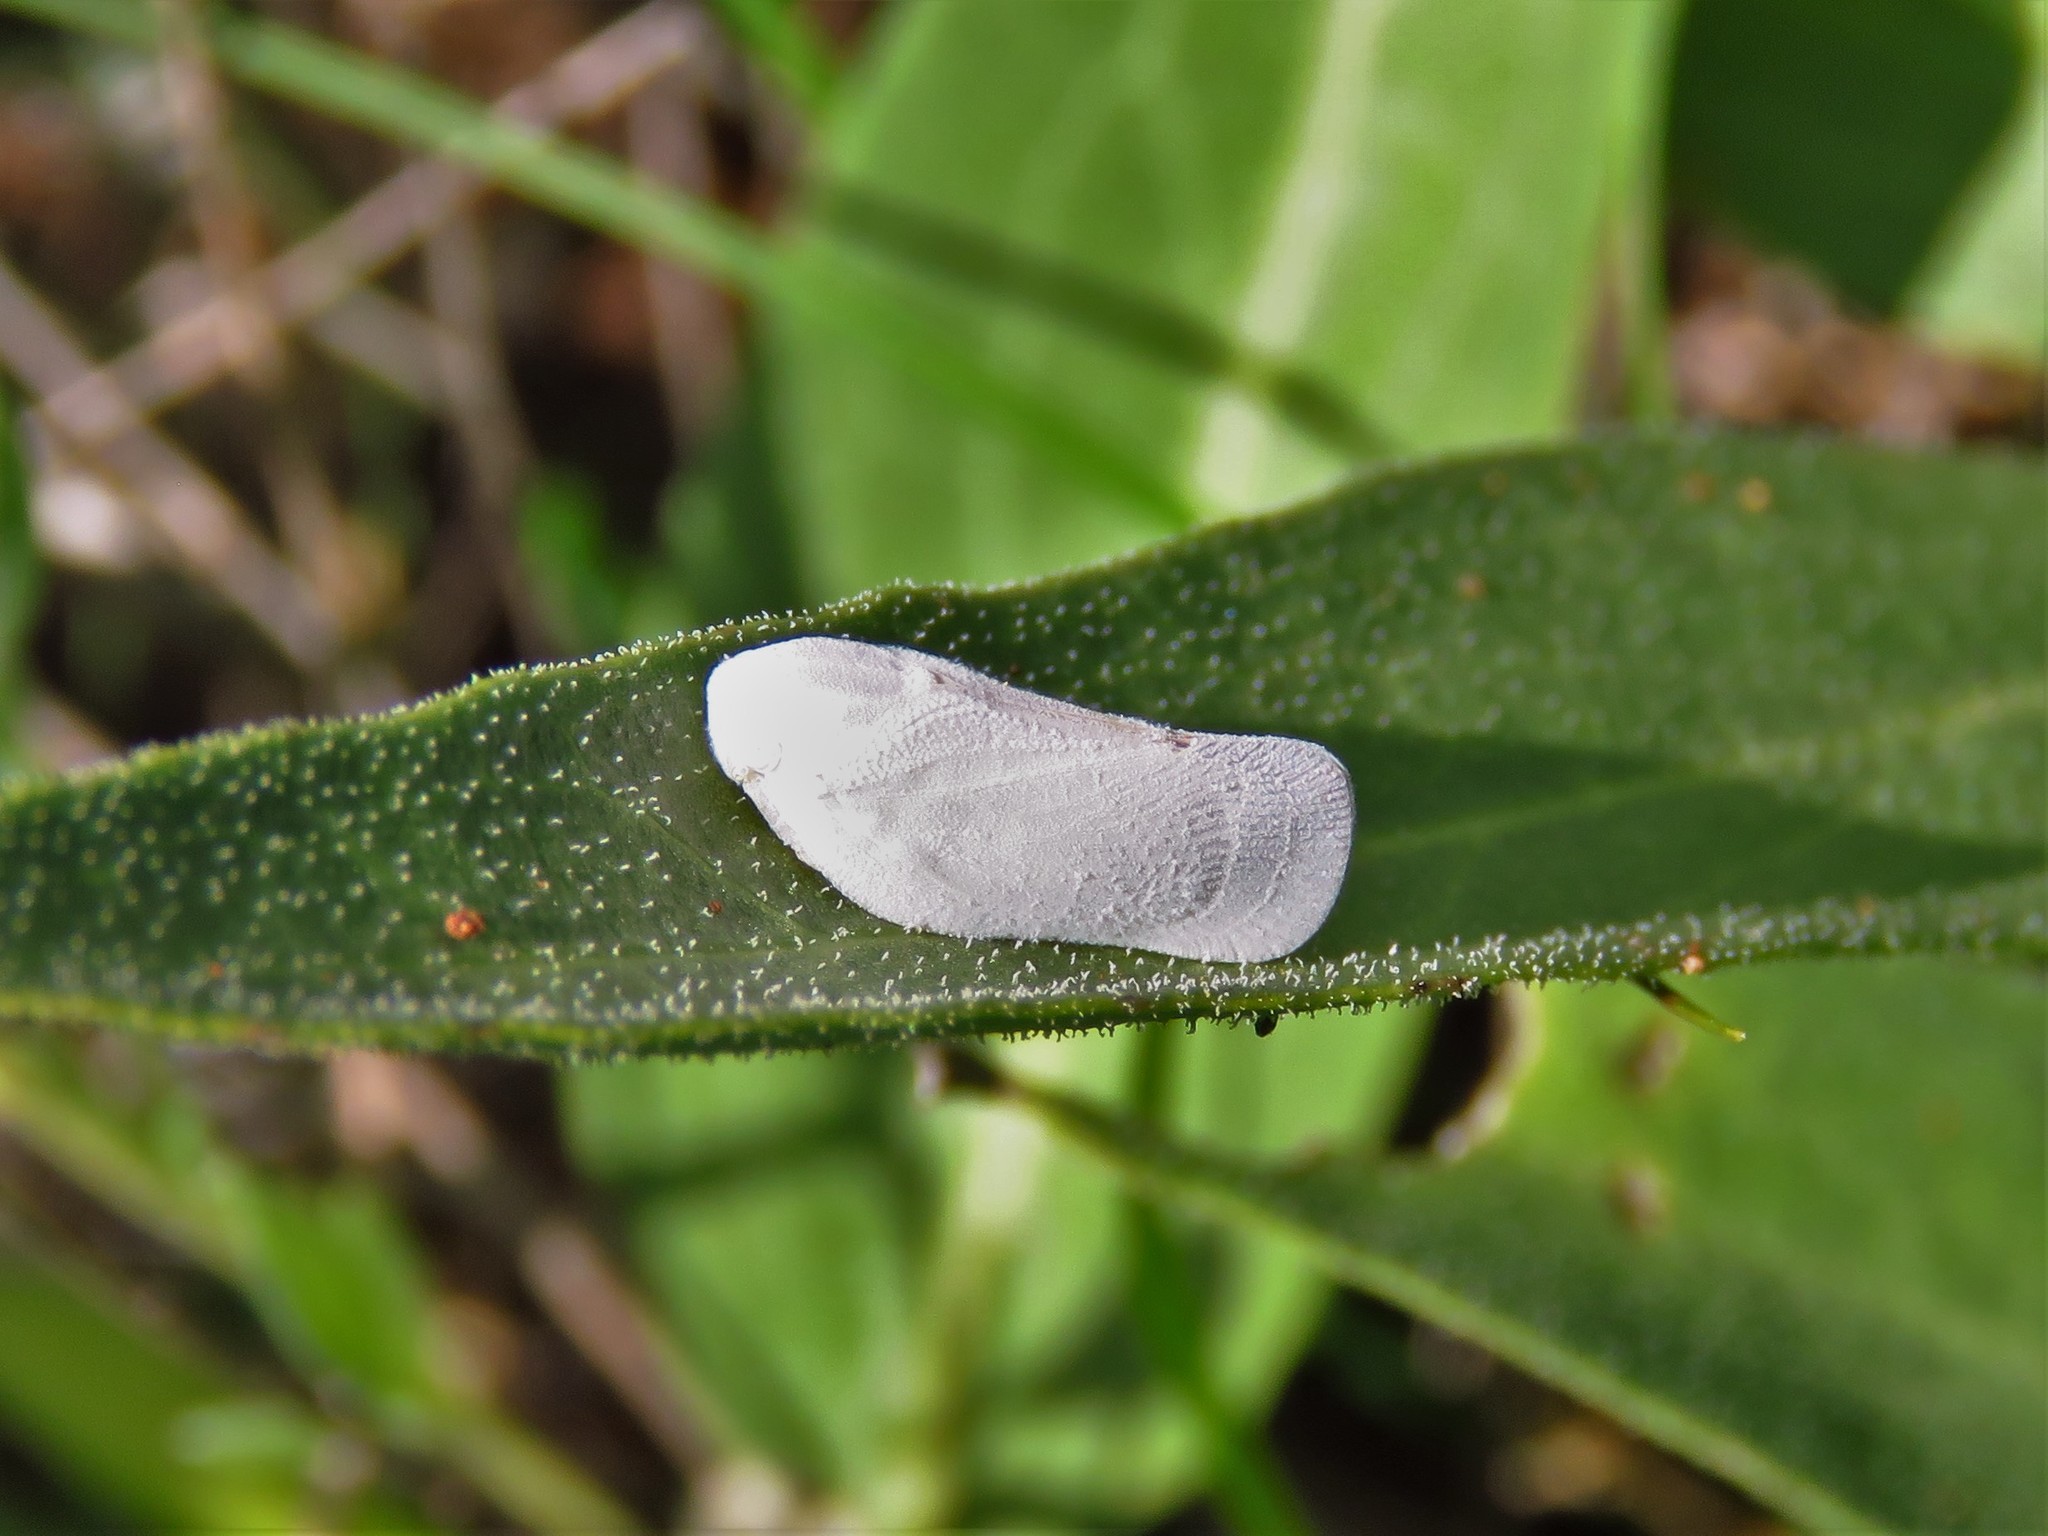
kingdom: Animalia
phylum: Arthropoda
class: Insecta
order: Hemiptera
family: Flatidae
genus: Flatormenis
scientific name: Flatormenis saucia
